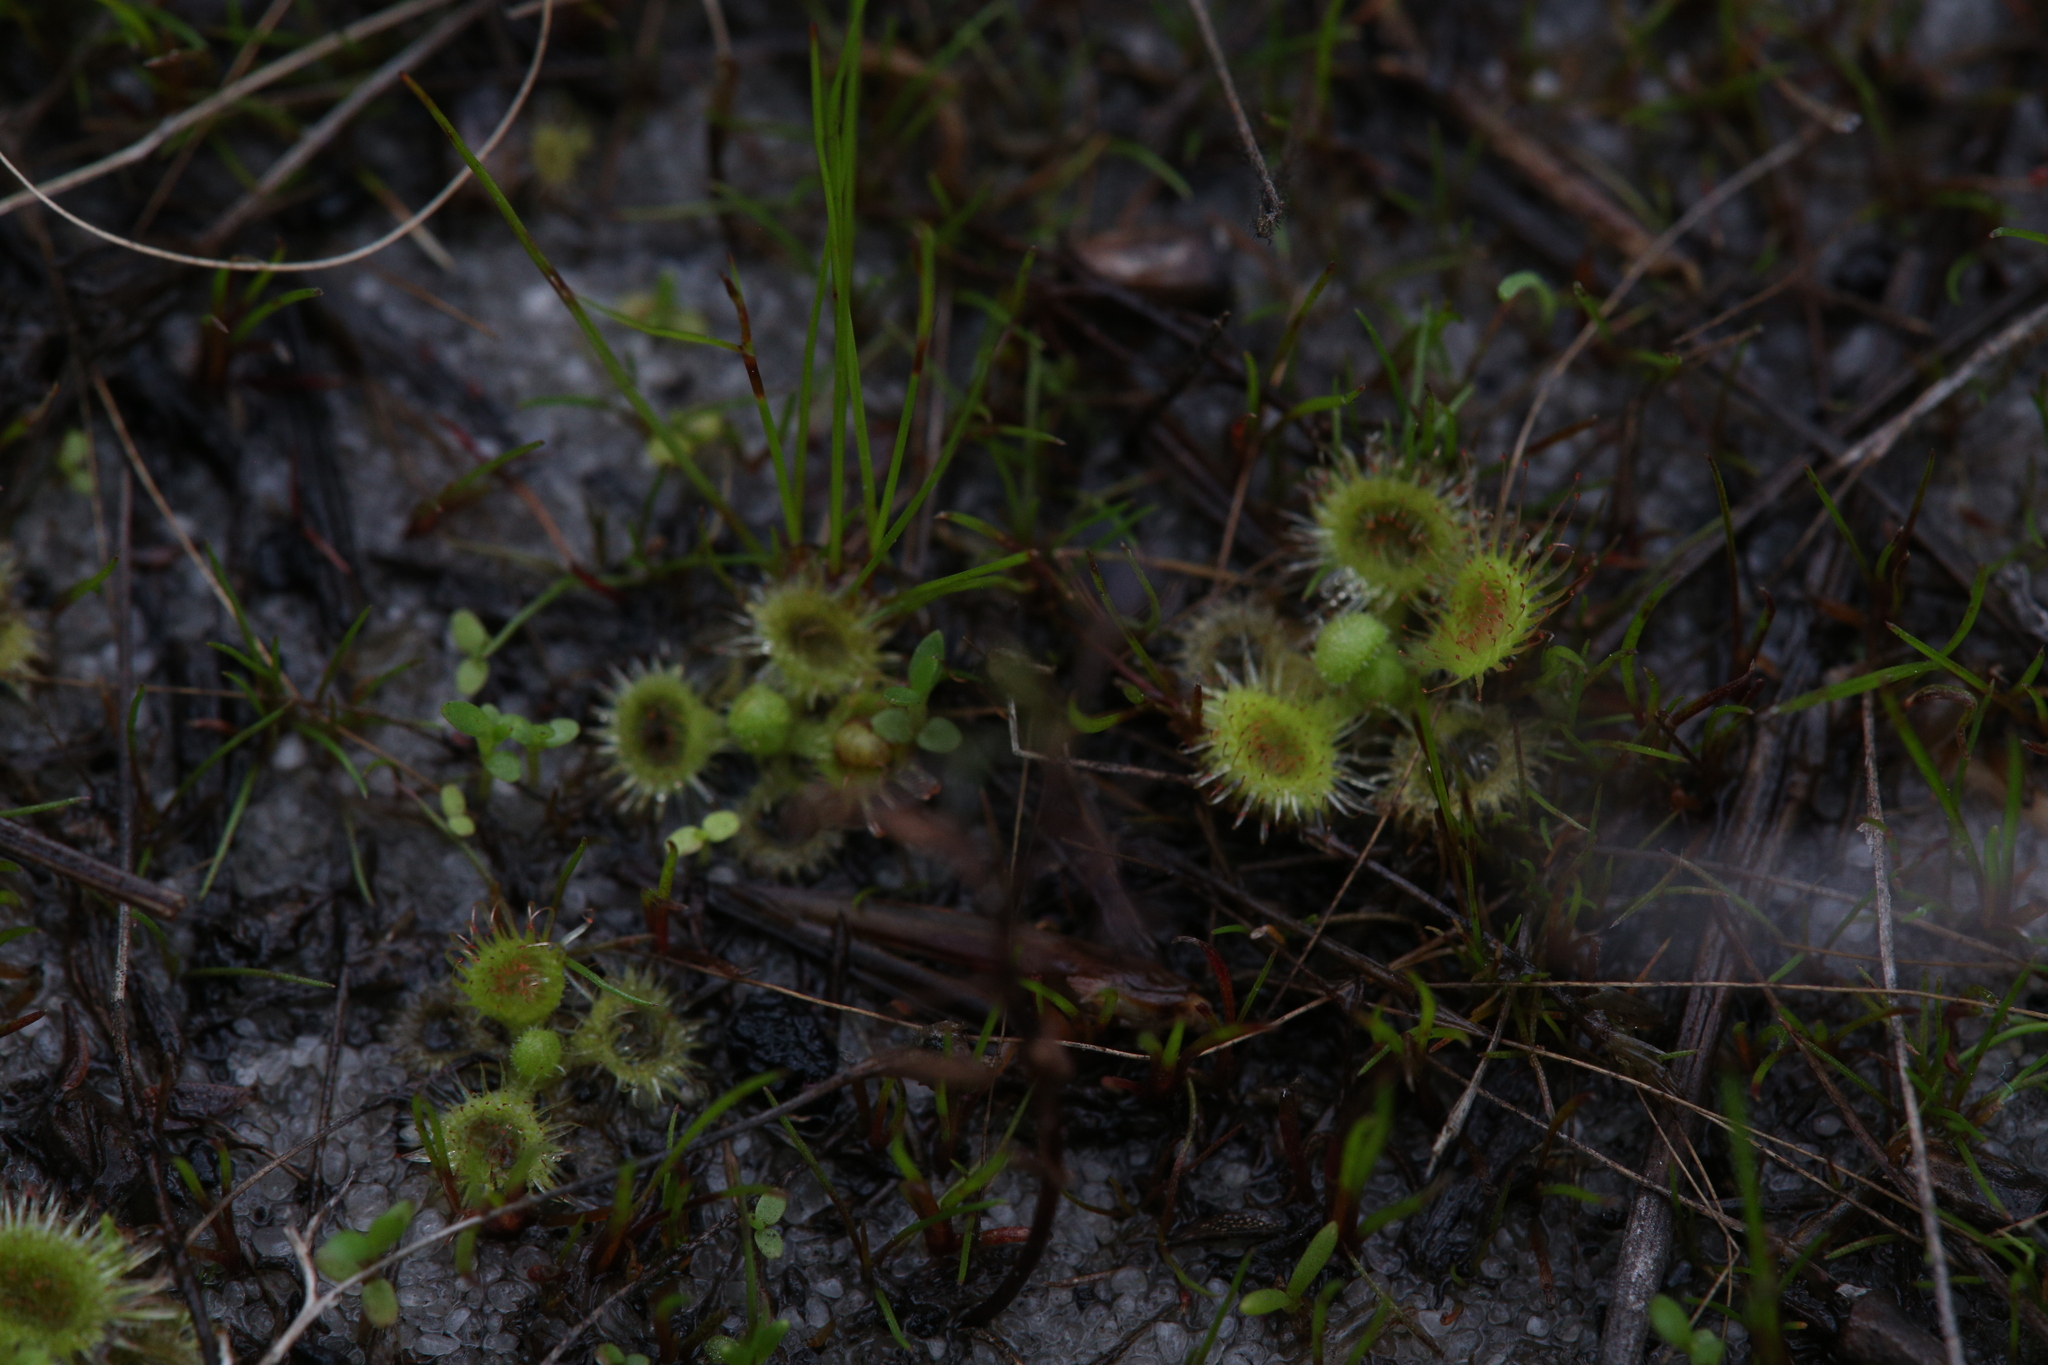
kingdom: Plantae
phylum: Tracheophyta
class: Magnoliopsida
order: Caryophyllales
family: Droseraceae
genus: Drosera
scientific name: Drosera glanduligera
